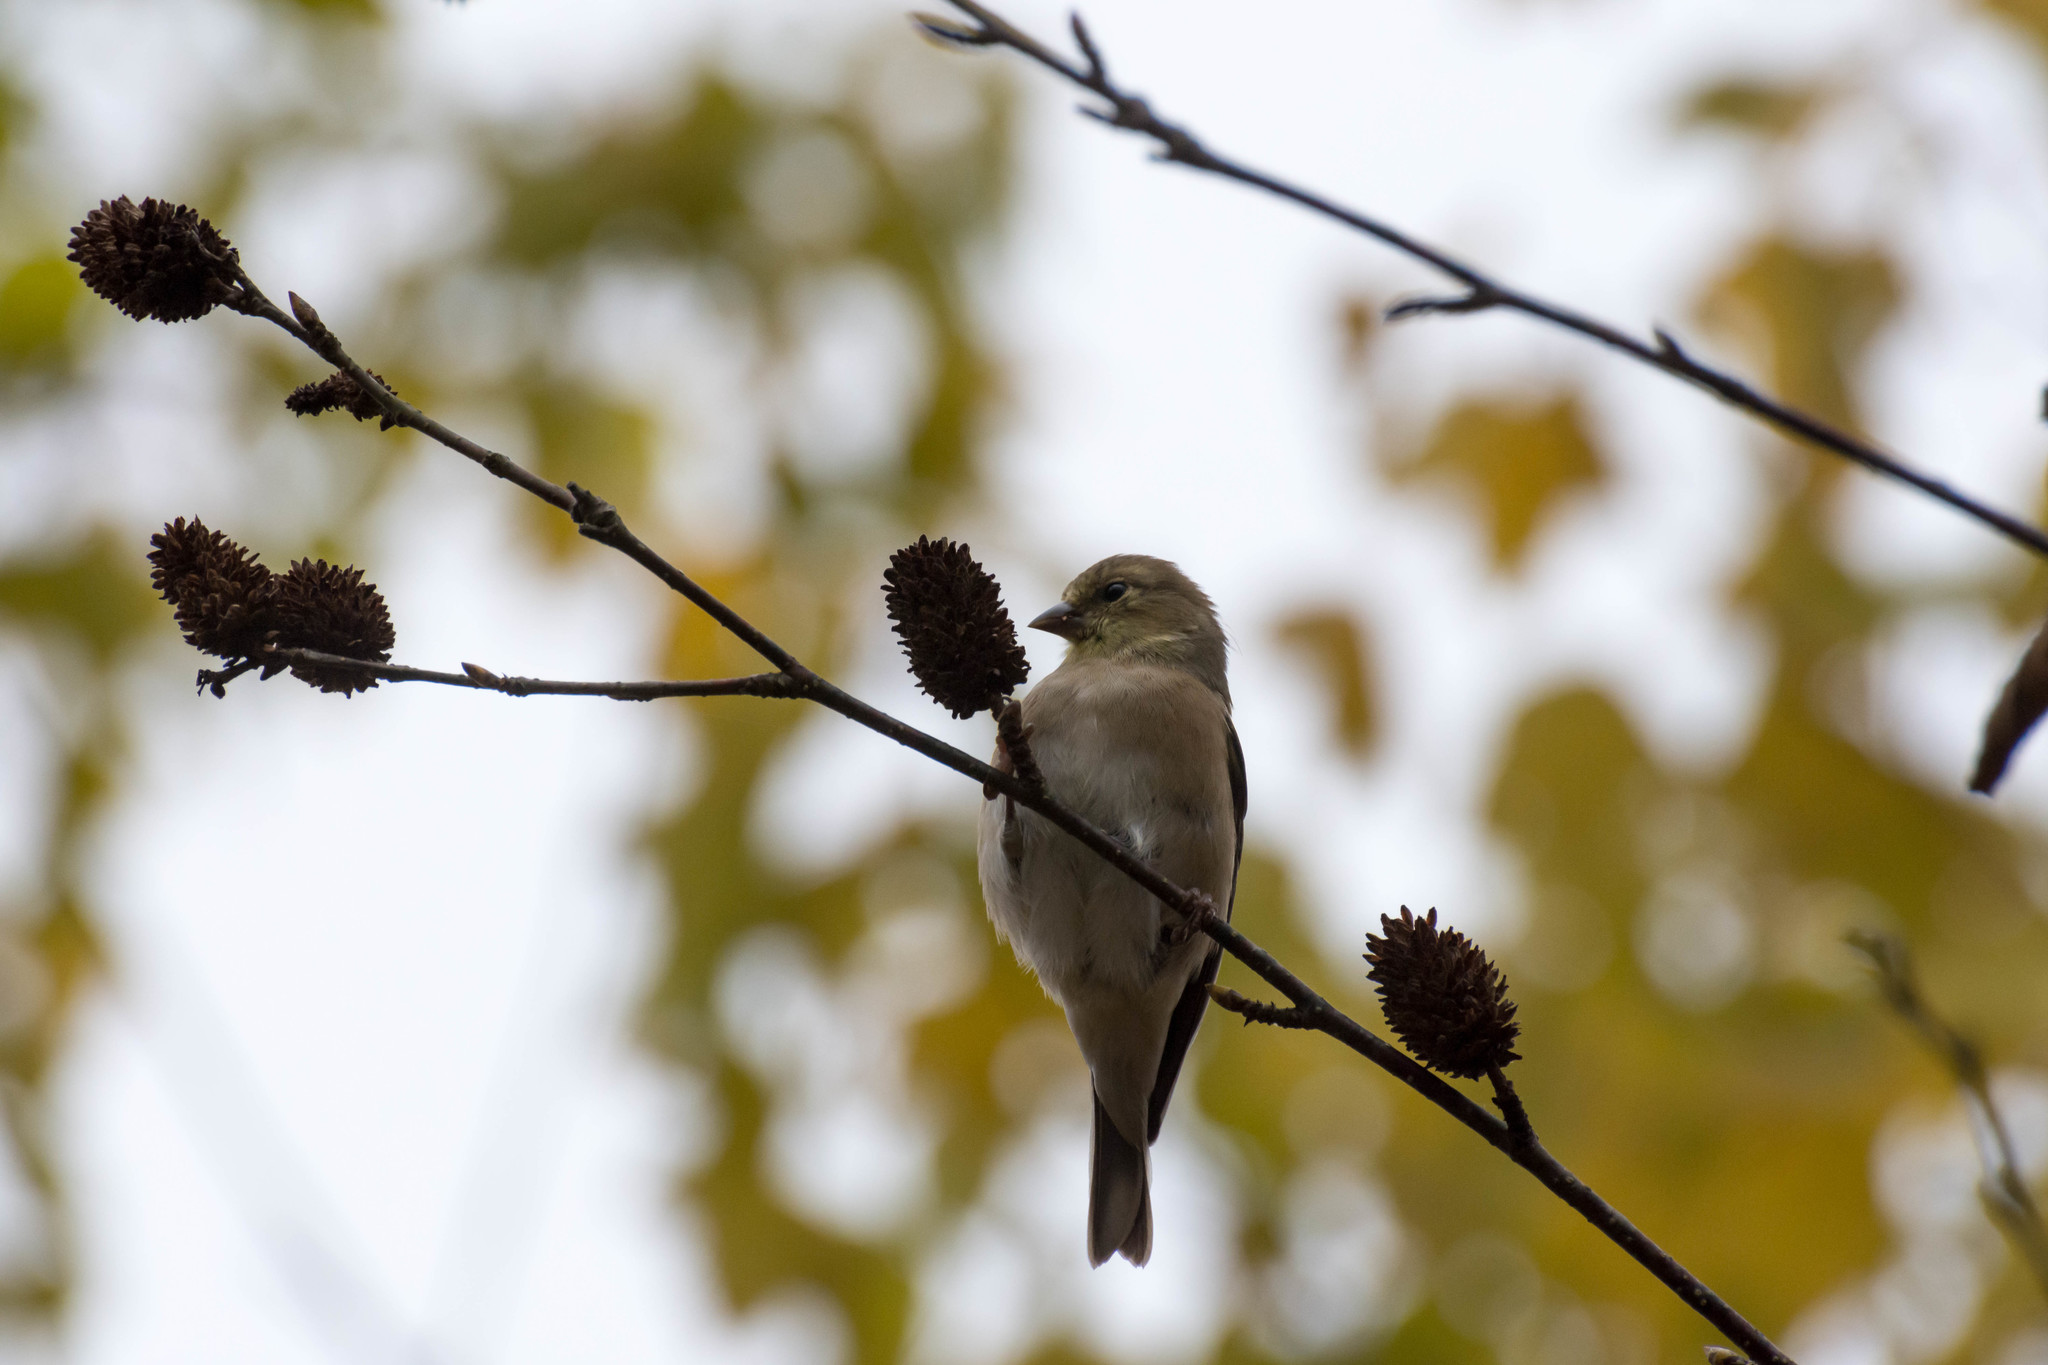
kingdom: Animalia
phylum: Chordata
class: Aves
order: Passeriformes
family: Fringillidae
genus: Spinus
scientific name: Spinus tristis
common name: American goldfinch
